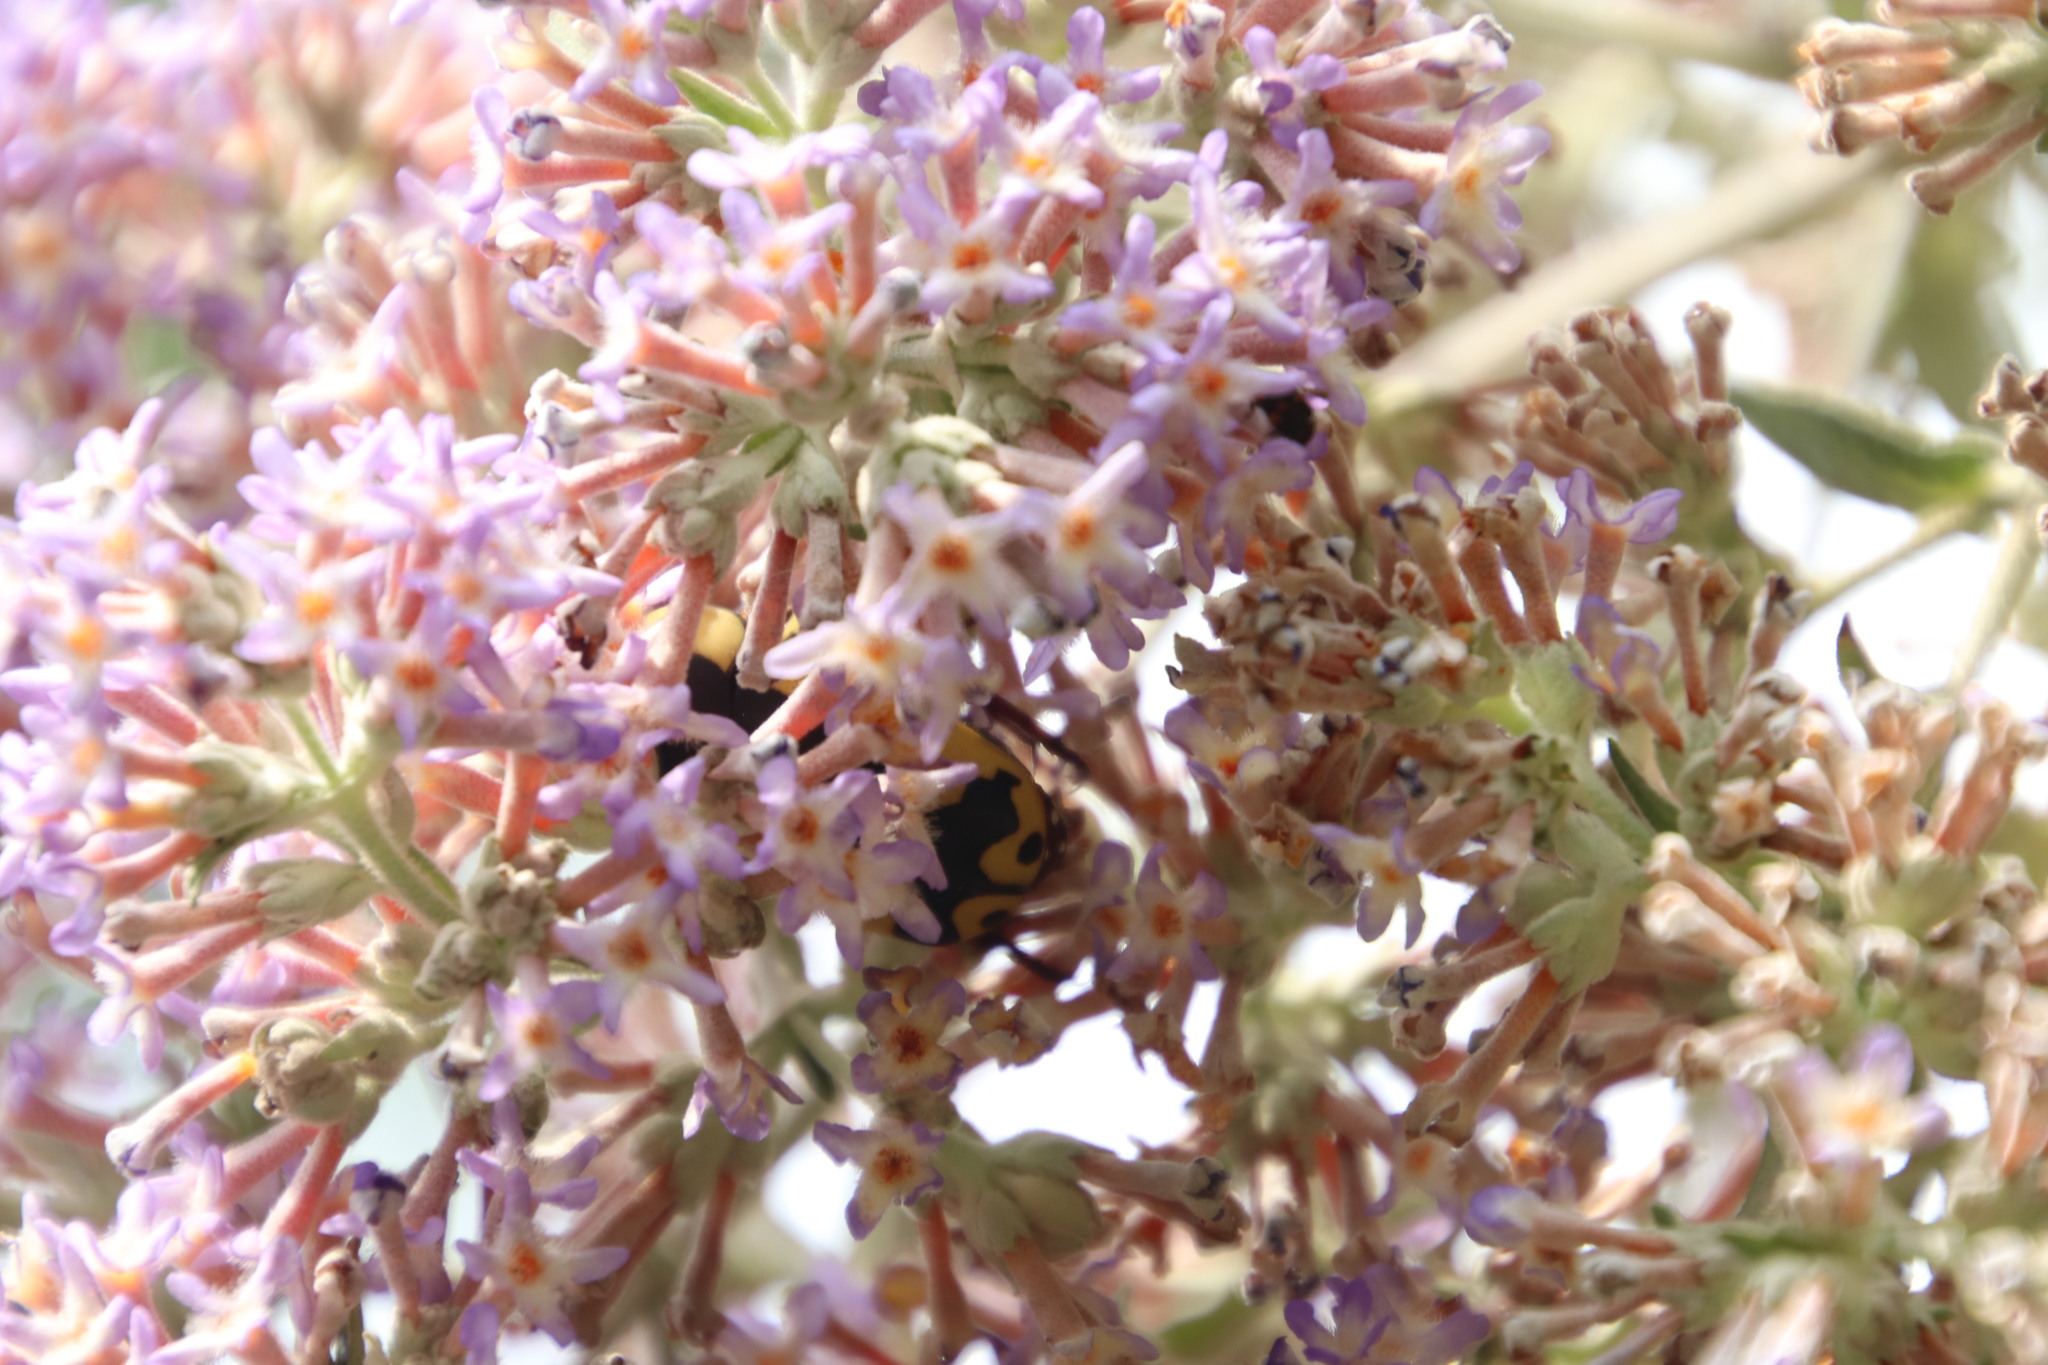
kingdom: Animalia
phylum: Arthropoda
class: Insecta
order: Coleoptera
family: Scarabaeidae
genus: Pachnoda
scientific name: Pachnoda sinuata
